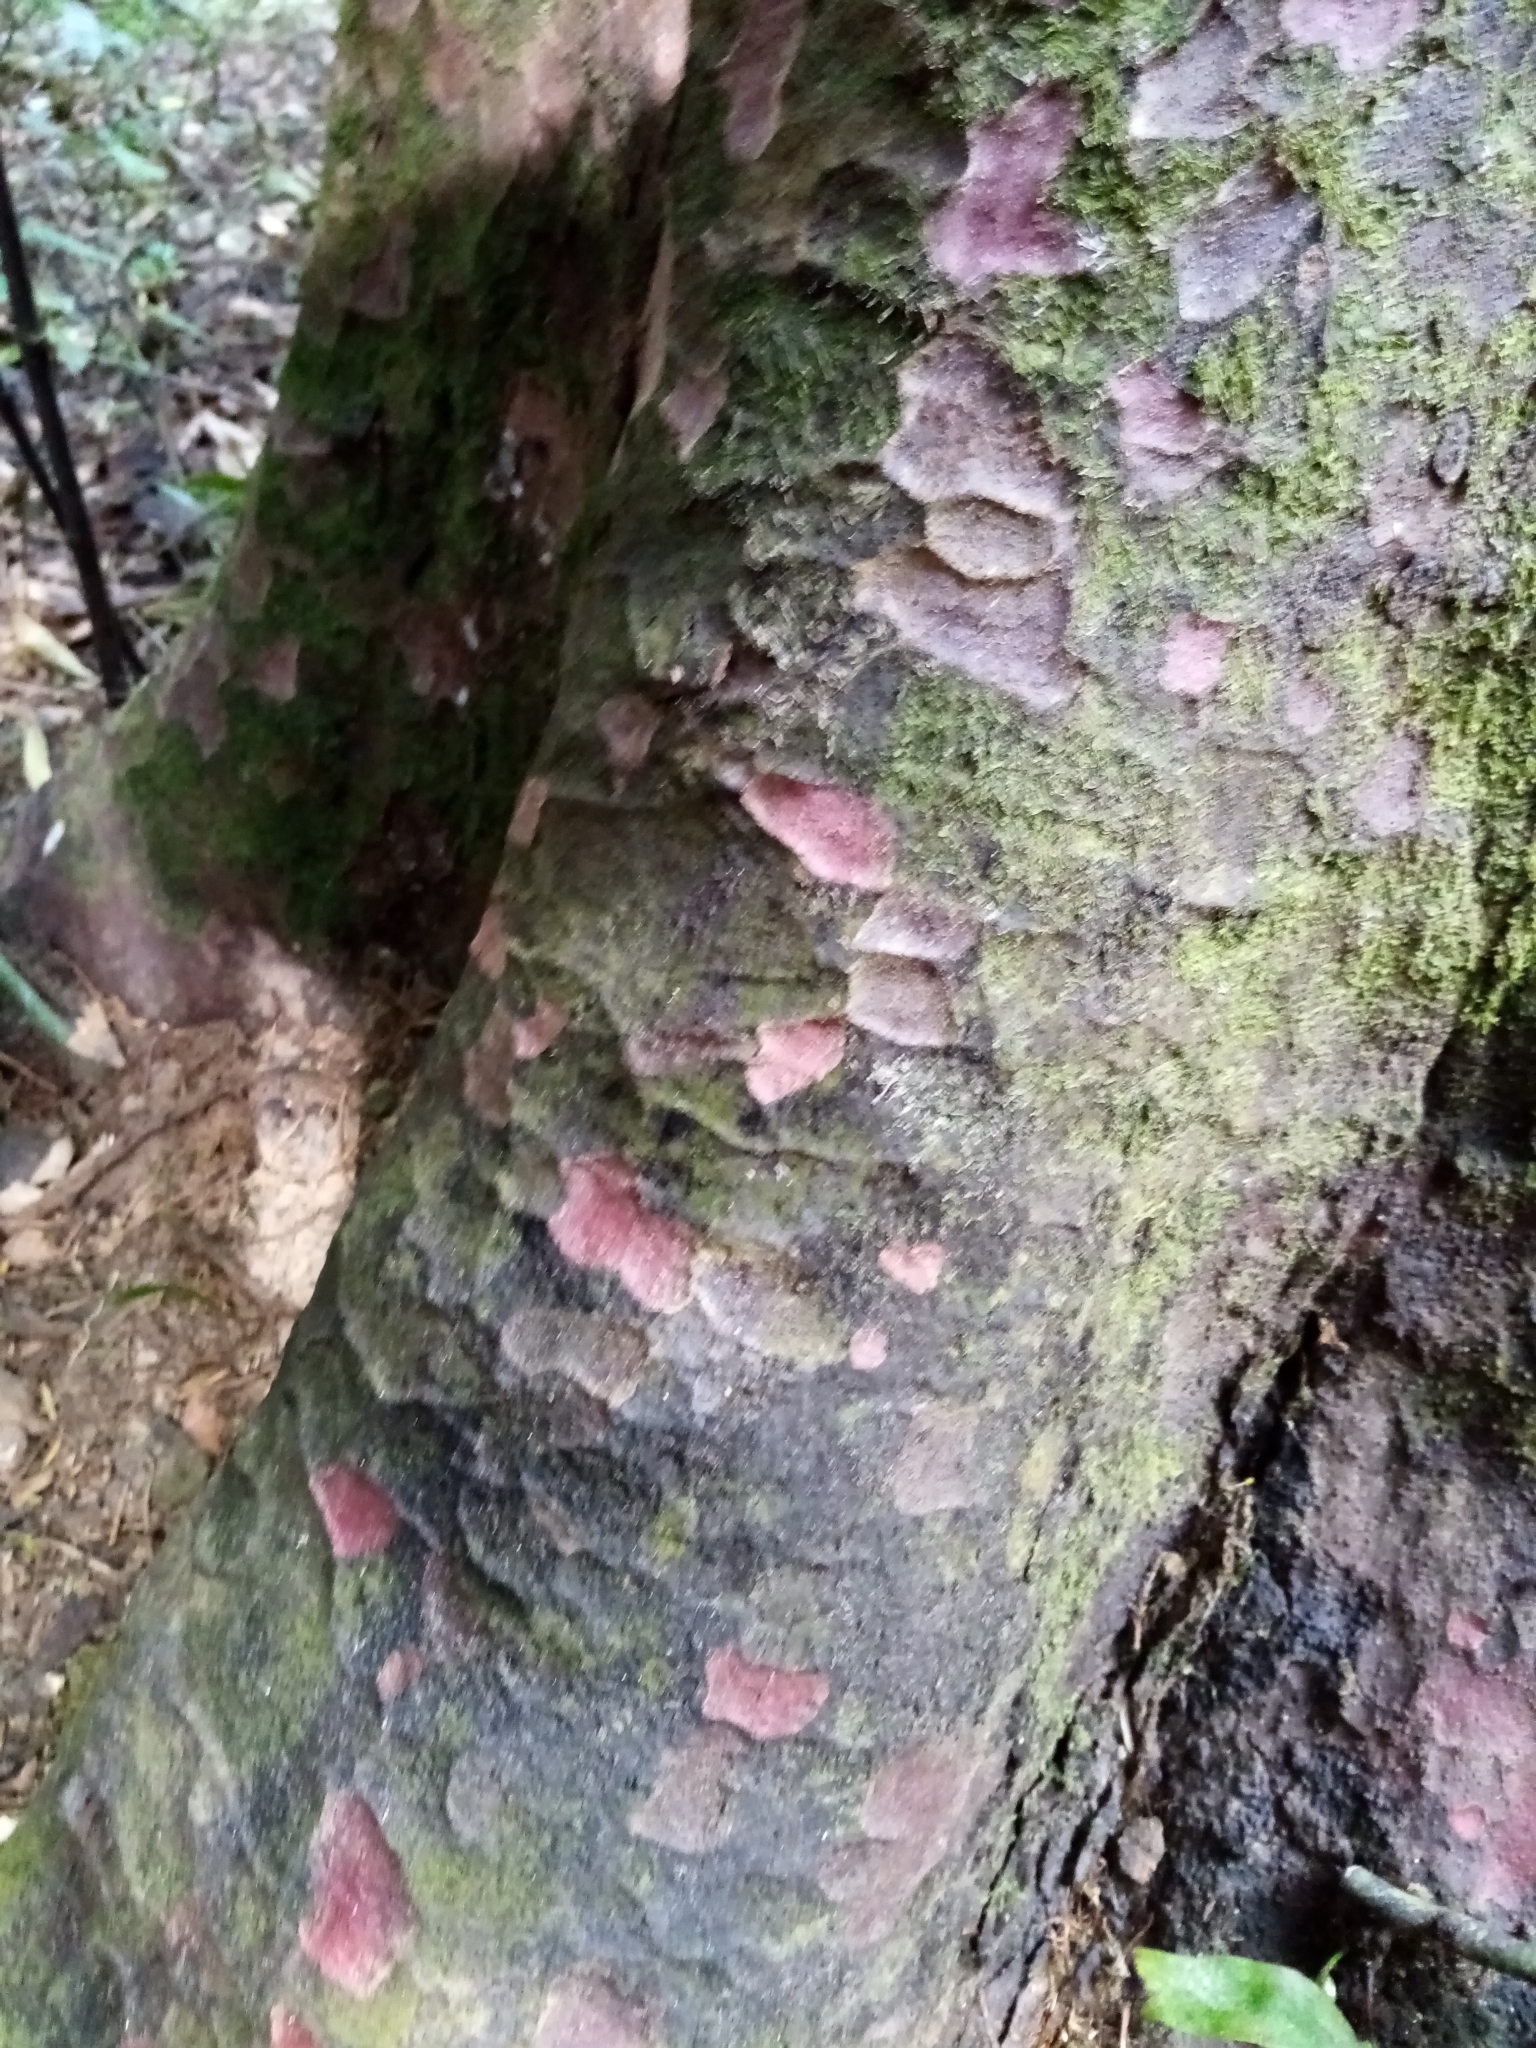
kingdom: Plantae
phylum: Tracheophyta
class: Pinopsida
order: Pinales
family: Podocarpaceae
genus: Prumnopitys
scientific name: Prumnopitys taxifolia
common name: Matai
